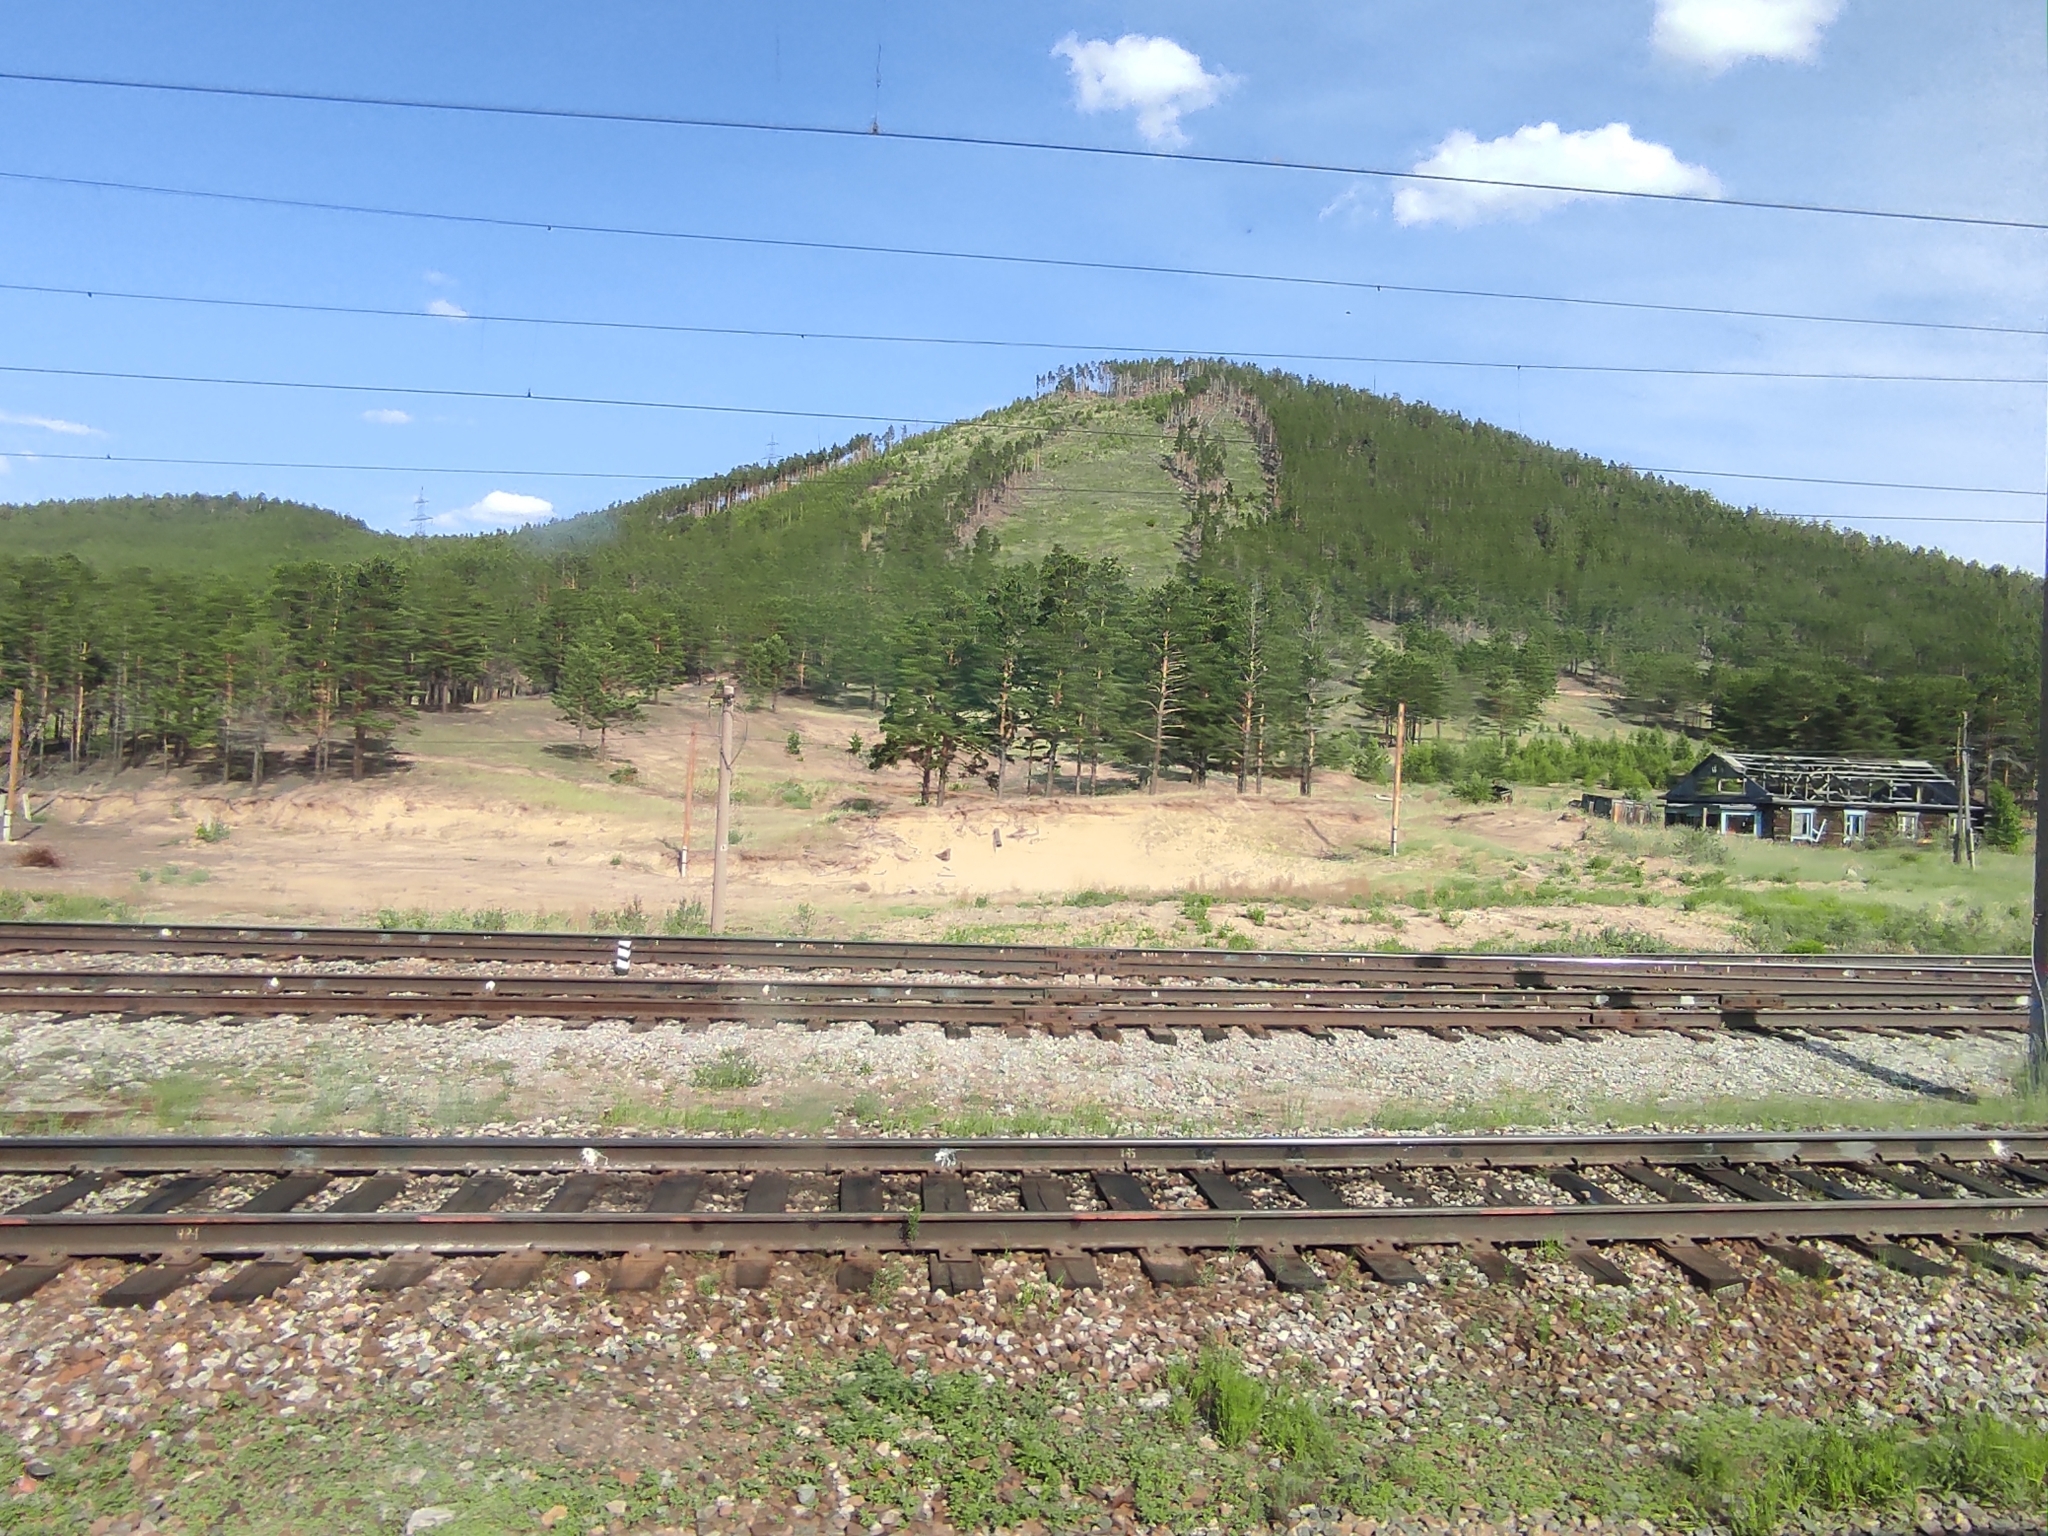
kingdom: Plantae
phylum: Tracheophyta
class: Pinopsida
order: Pinales
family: Pinaceae
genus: Pinus
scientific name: Pinus sylvestris
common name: Scots pine
